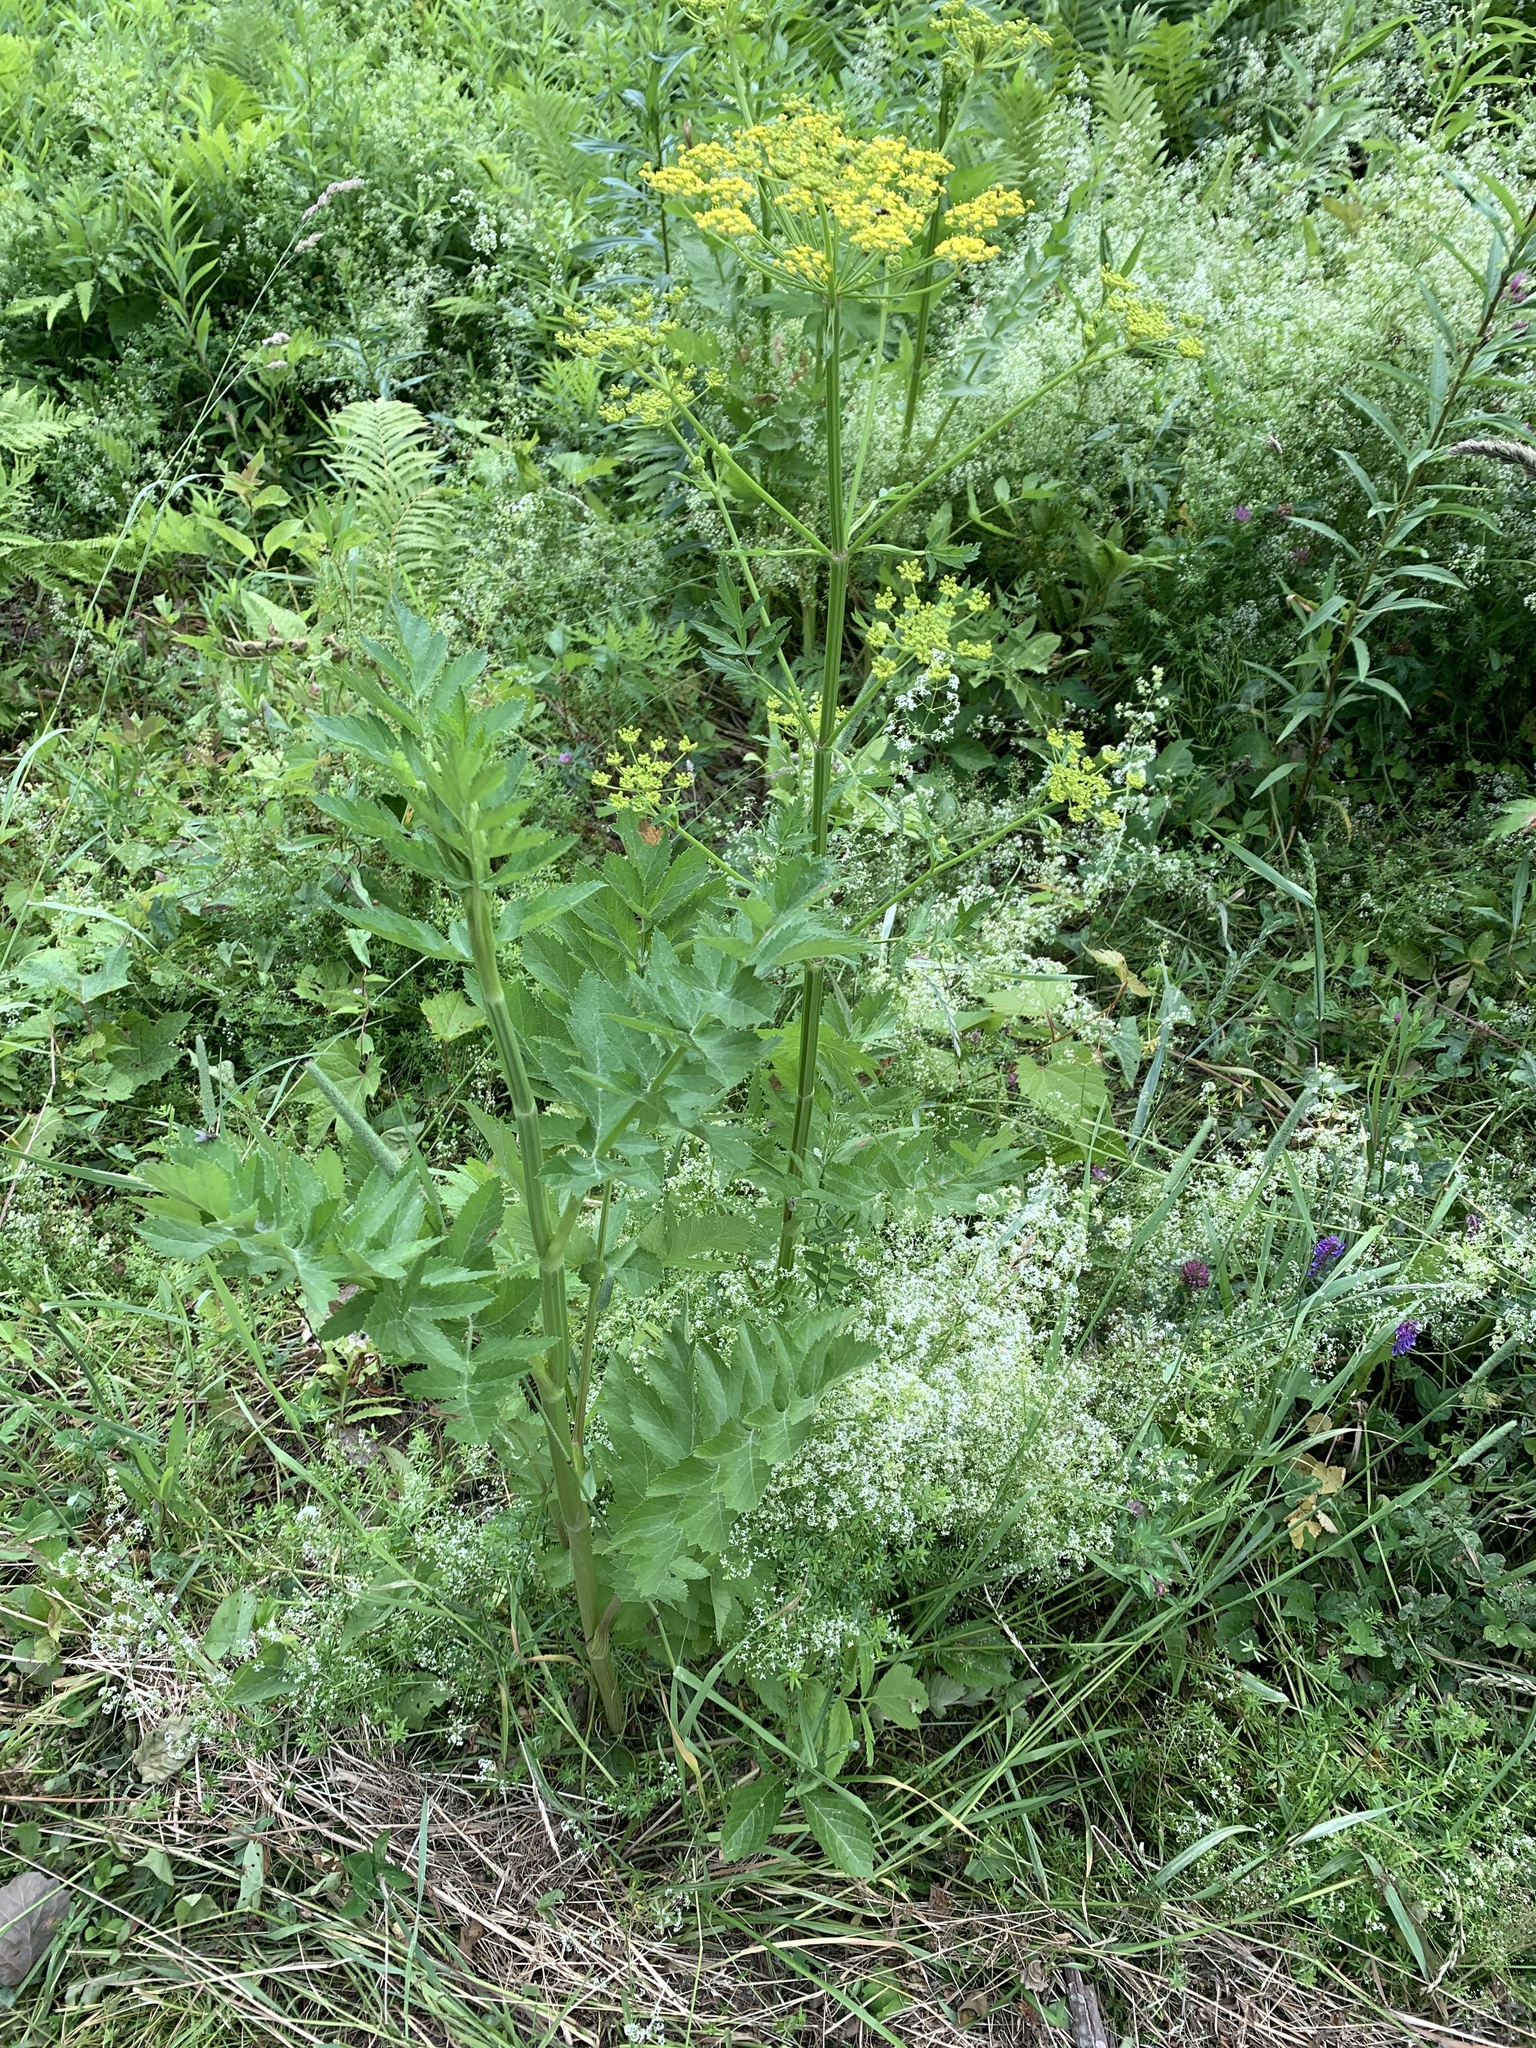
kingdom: Plantae
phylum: Tracheophyta
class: Magnoliopsida
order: Apiales
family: Apiaceae
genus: Pastinaca
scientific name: Pastinaca sativa
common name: Wild parsnip
